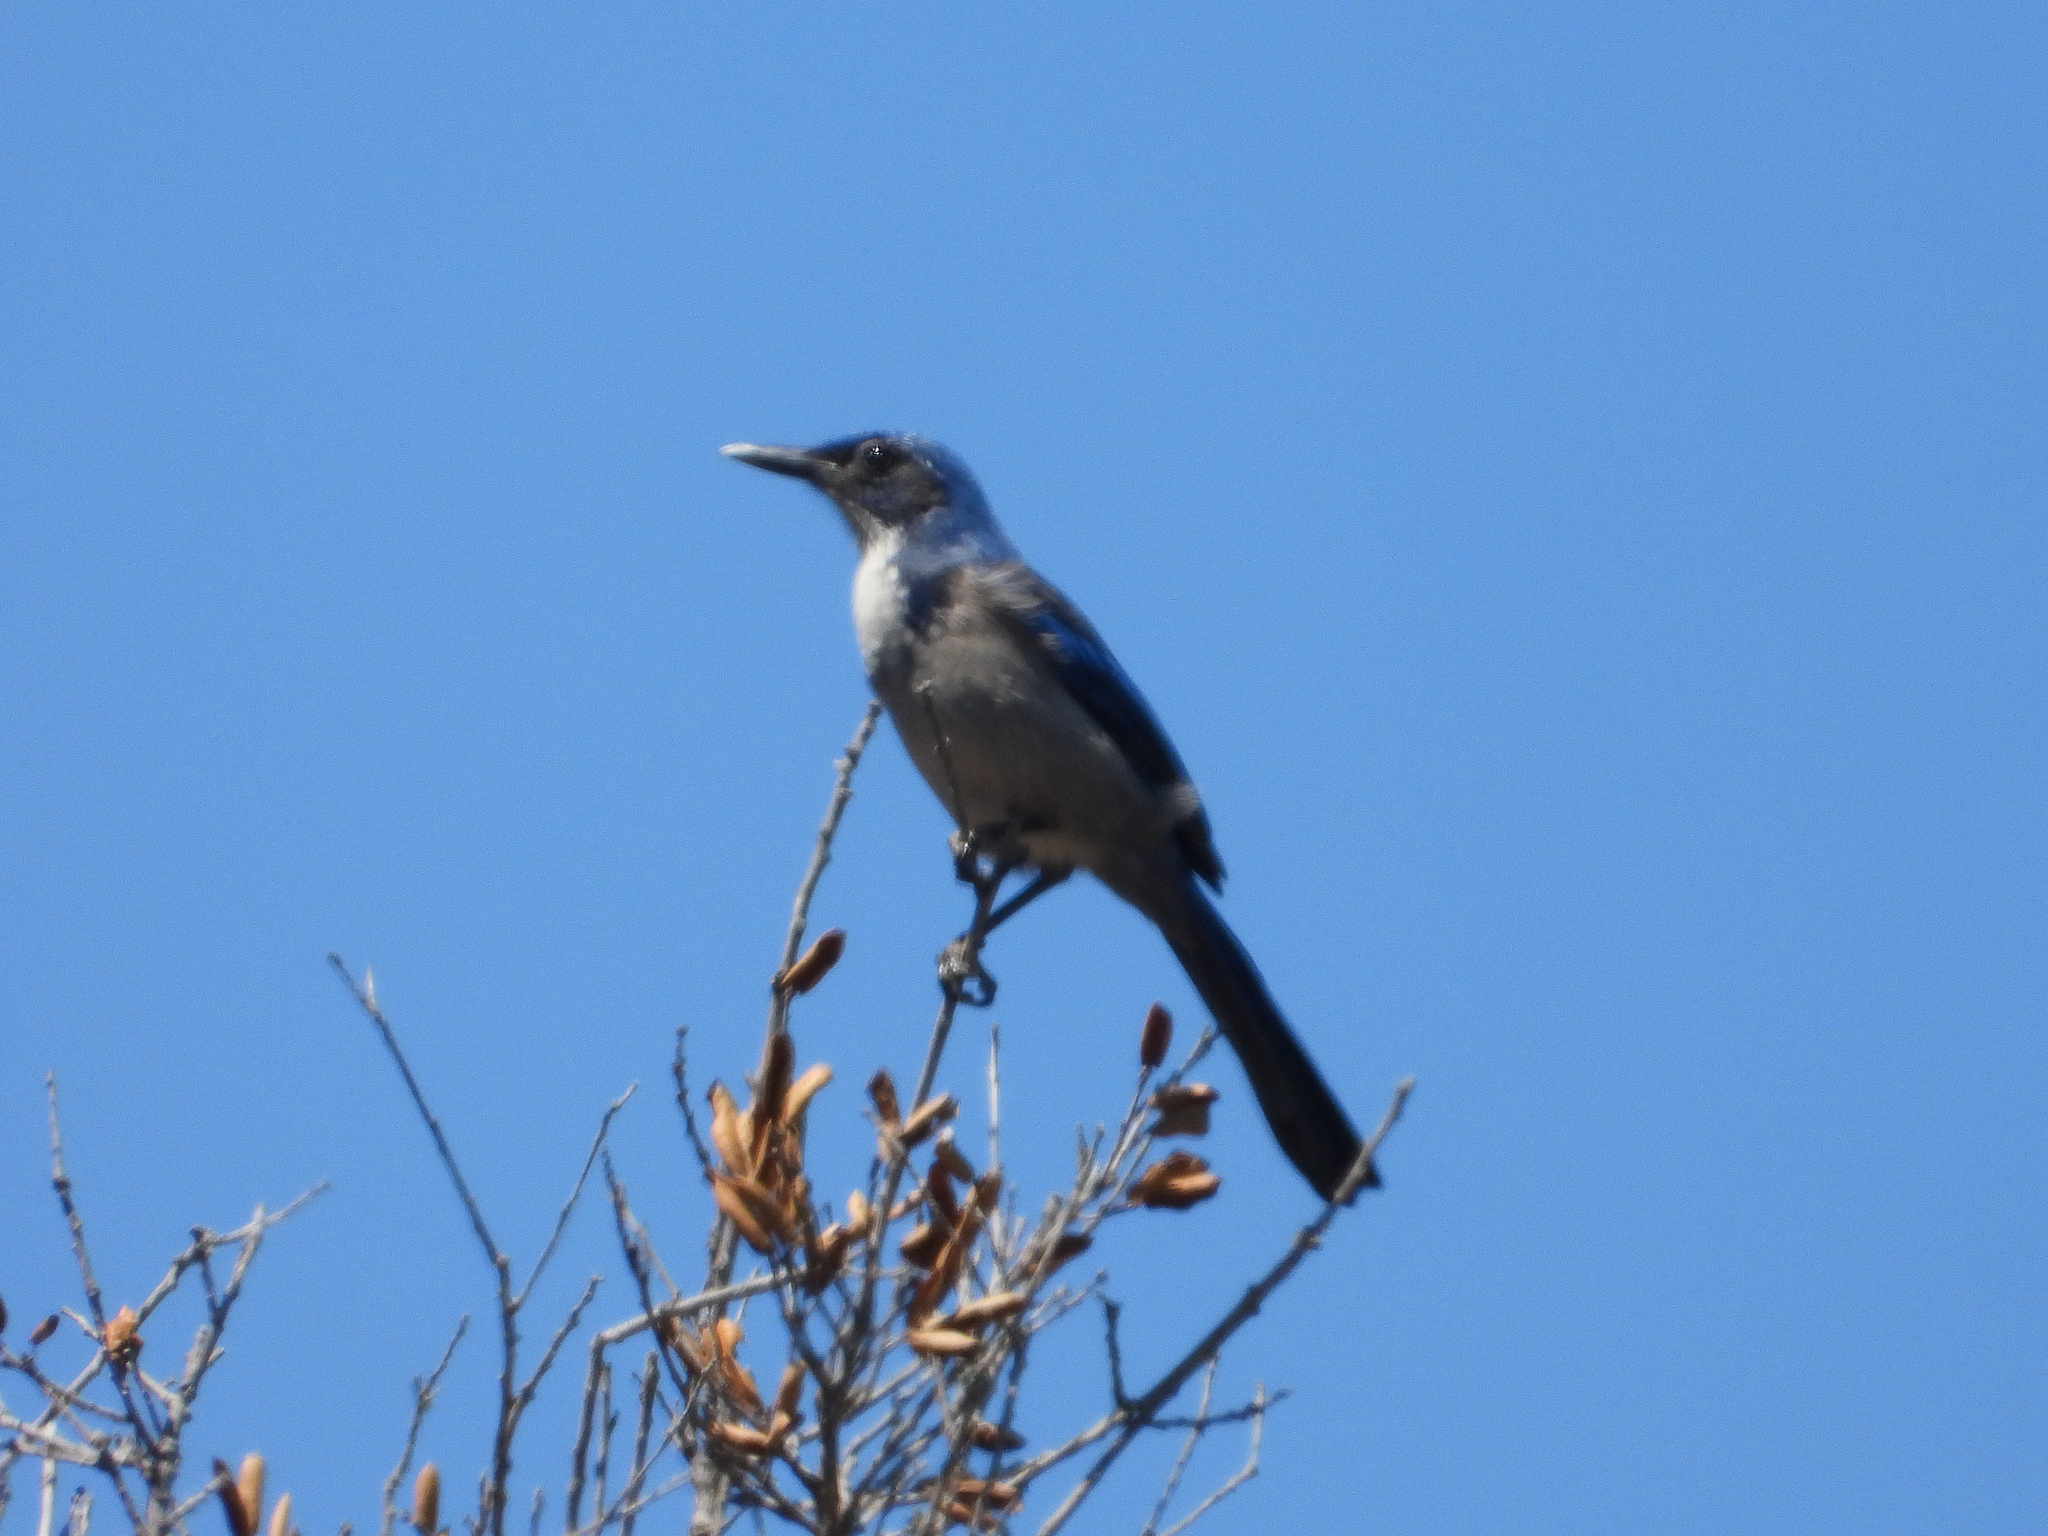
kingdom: Animalia
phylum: Chordata
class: Aves
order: Passeriformes
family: Corvidae
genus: Aphelocoma
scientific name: Aphelocoma insularis
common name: Island scrub-jay
